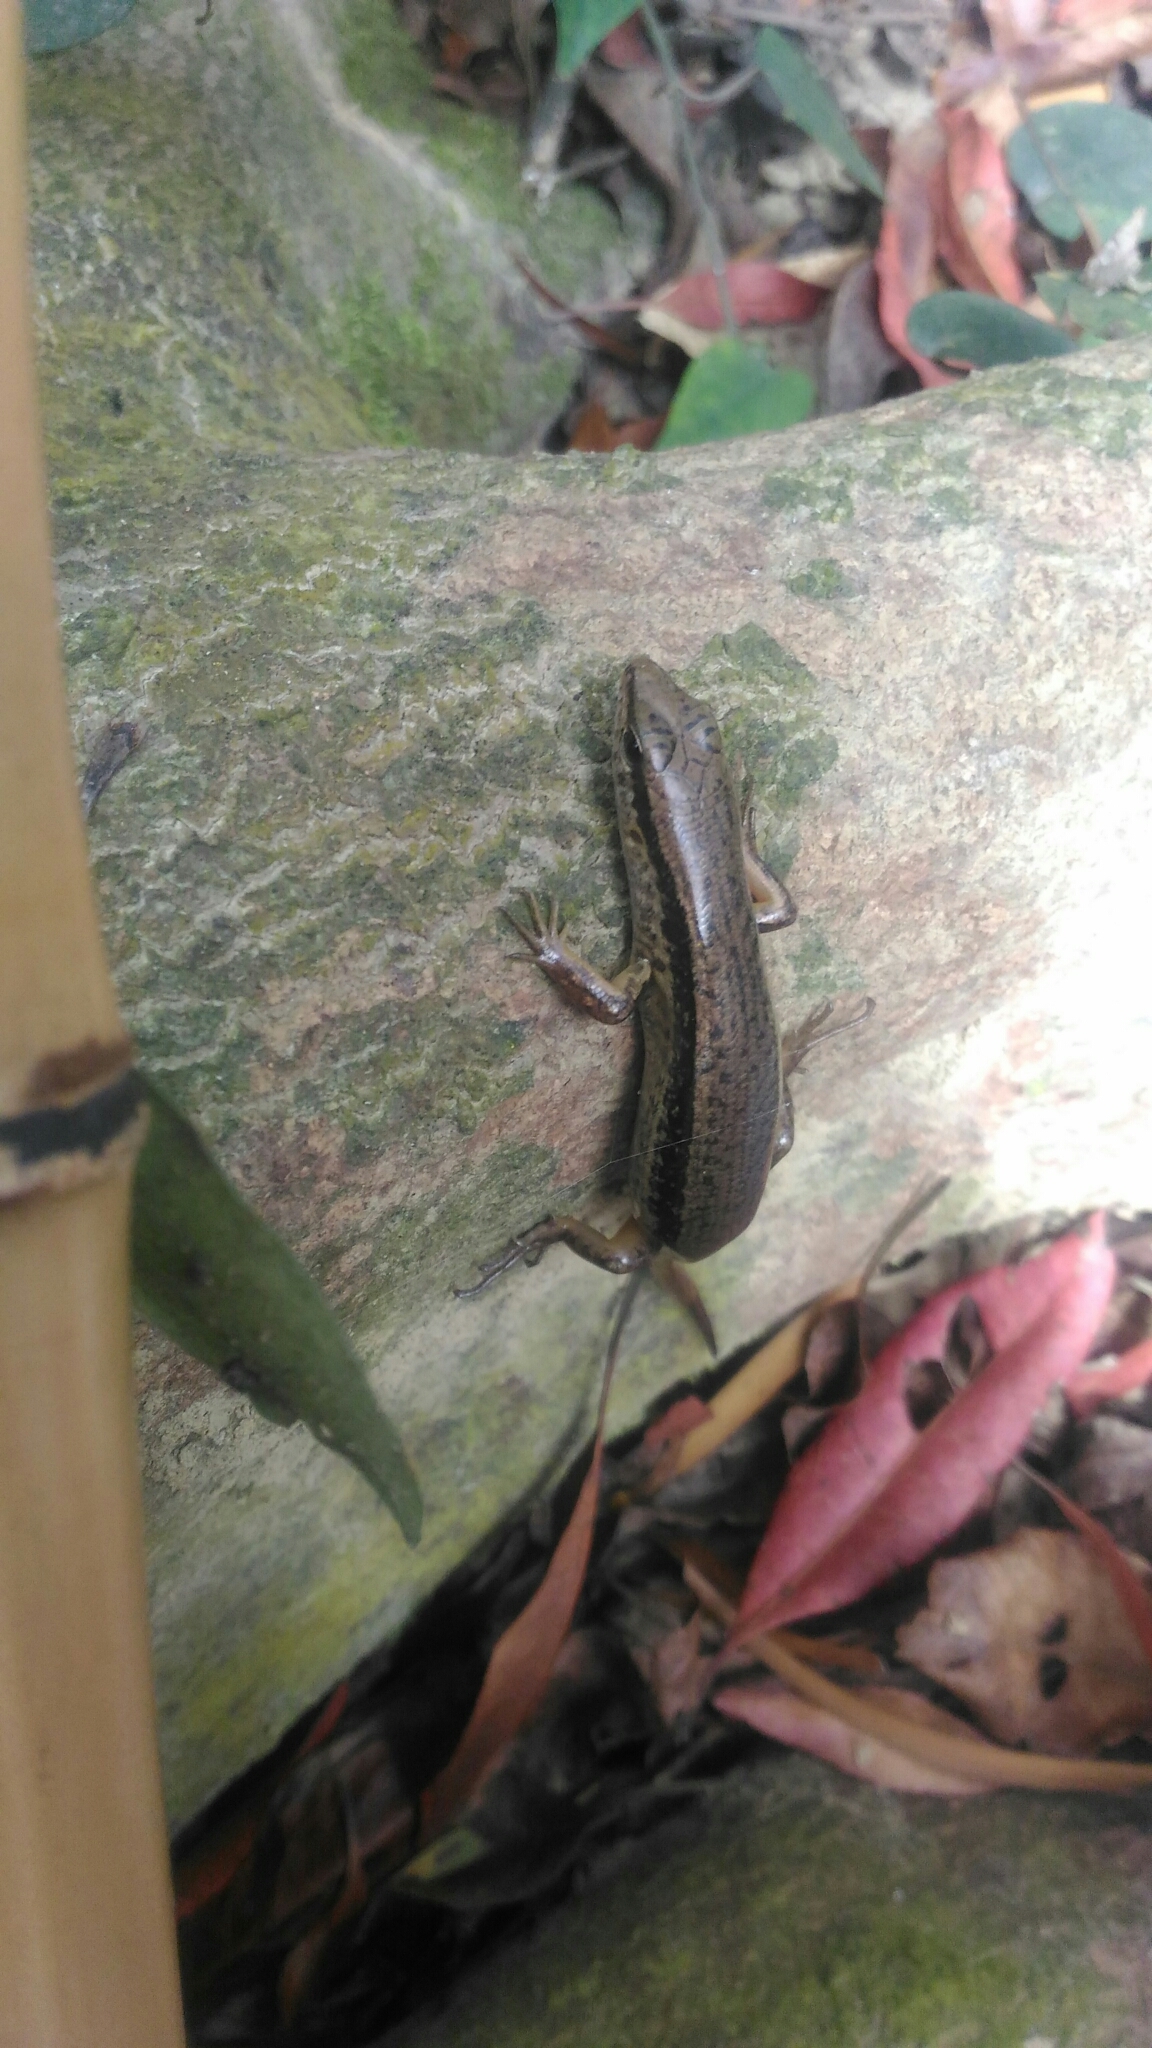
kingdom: Animalia
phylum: Chordata
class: Squamata
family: Scincidae
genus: Sphenomorphus
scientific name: Sphenomorphus indicus
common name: Himalayan forest skink
